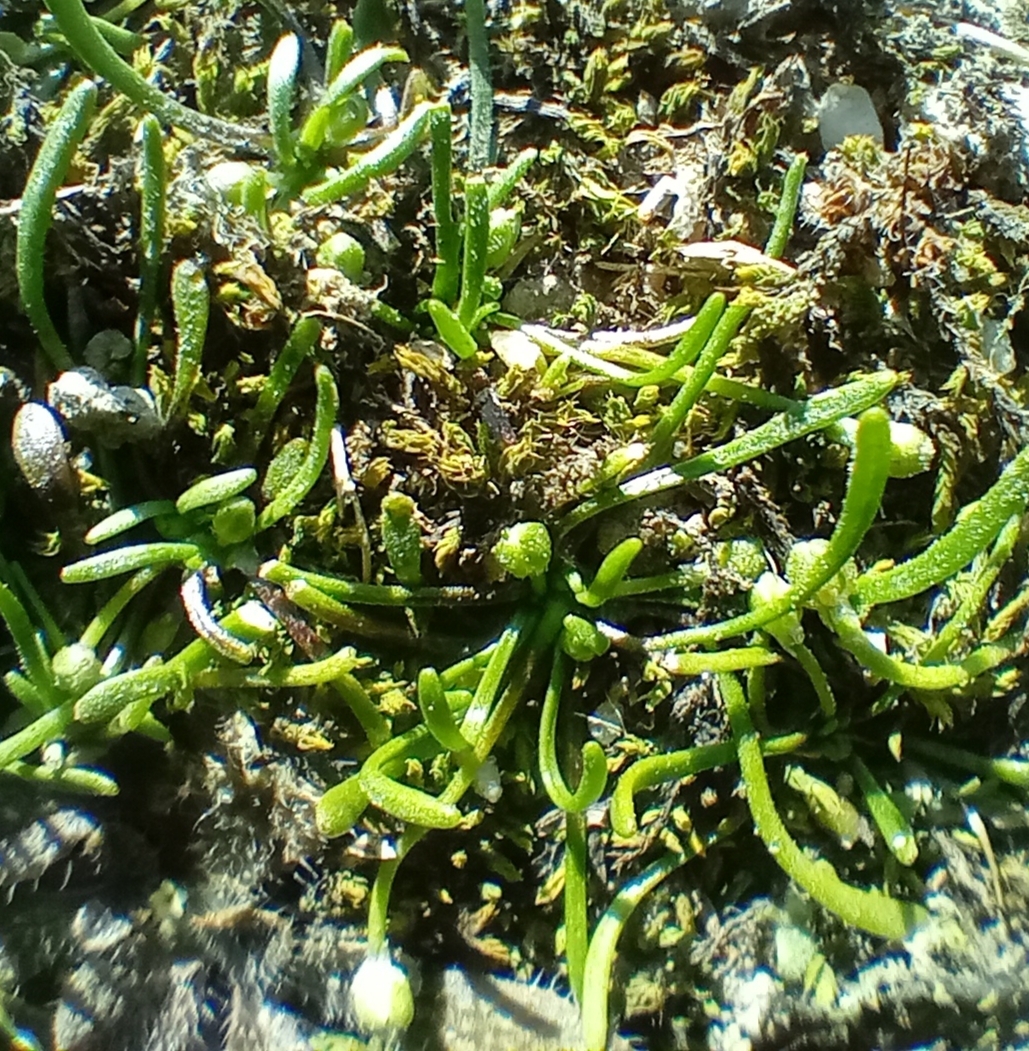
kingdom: Plantae
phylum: Tracheophyta
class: Magnoliopsida
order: Ranunculales
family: Ranunculaceae
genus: Myosurus
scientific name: Myosurus minimus
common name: Mousetail
